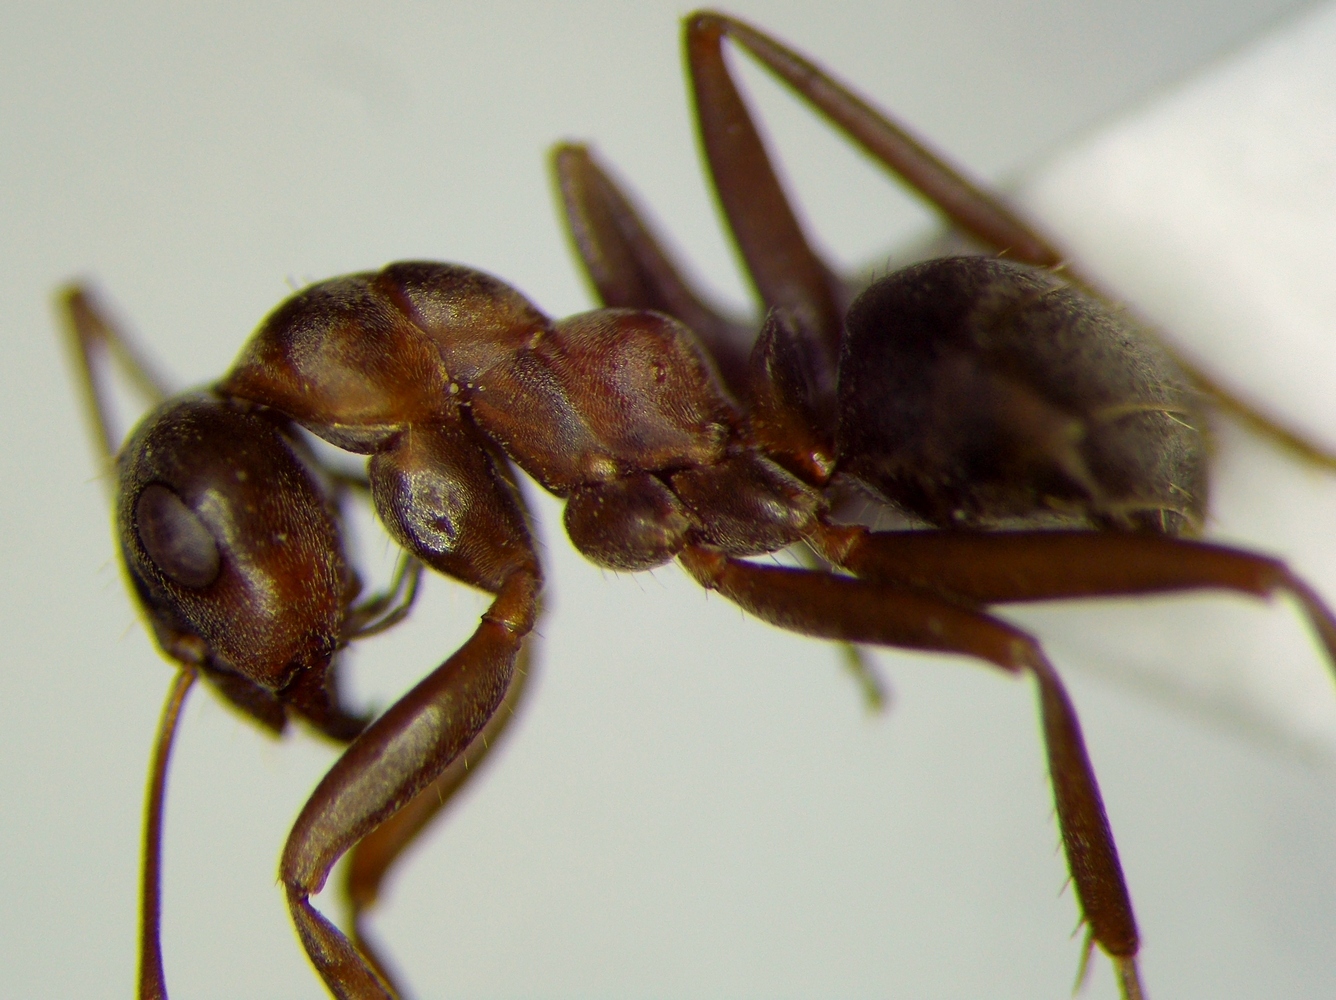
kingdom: Animalia
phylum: Arthropoda
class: Insecta
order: Hymenoptera
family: Formicidae
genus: Formica
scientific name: Formica cunicularia
